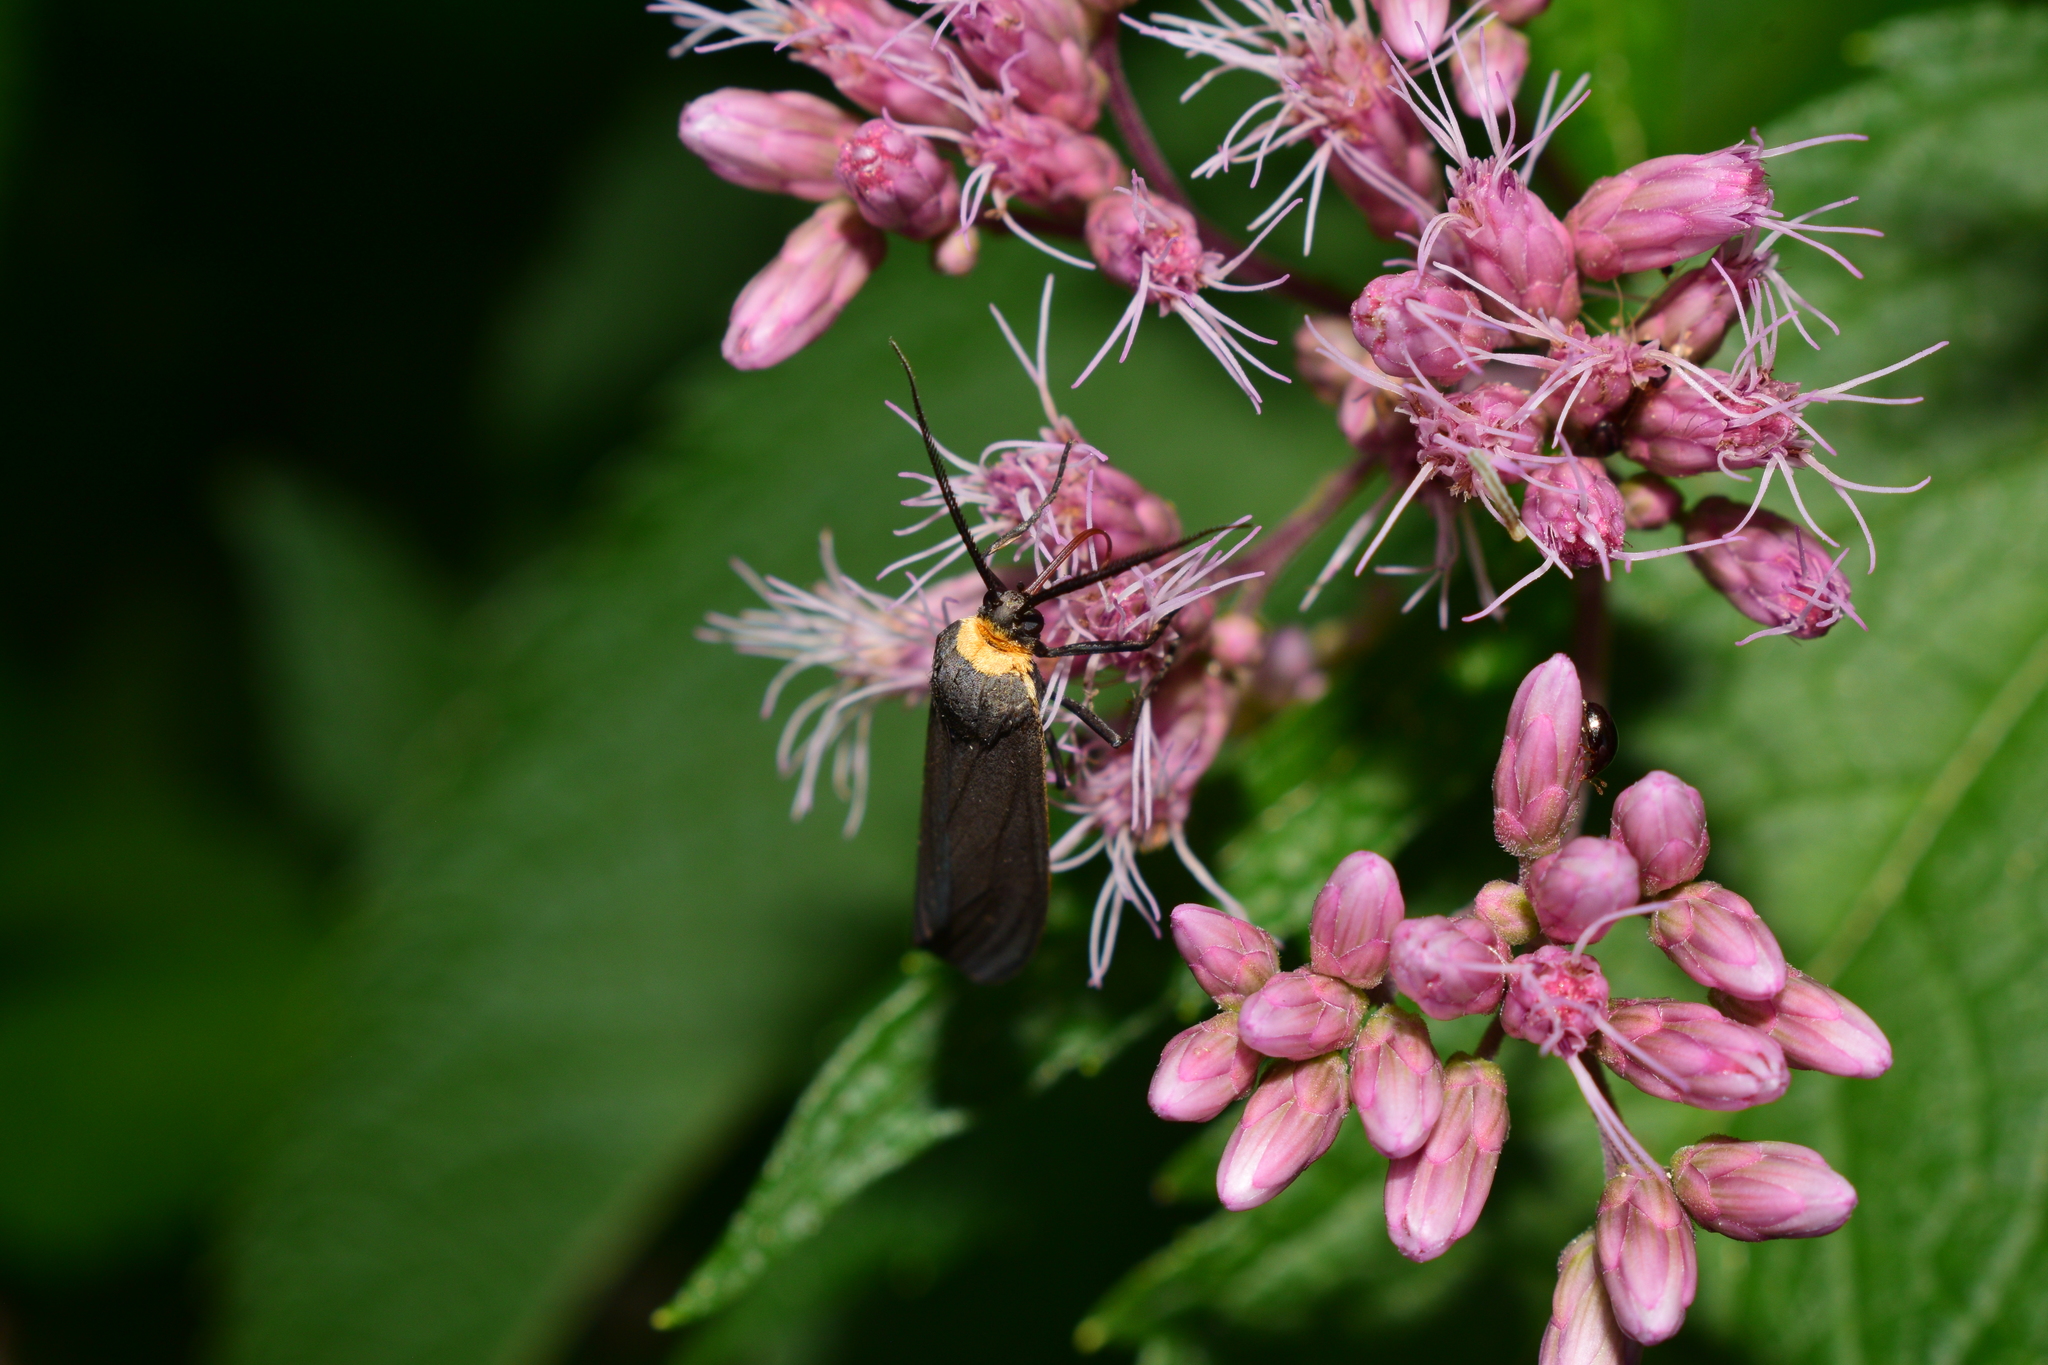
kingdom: Animalia
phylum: Arthropoda
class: Insecta
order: Lepidoptera
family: Erebidae
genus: Cisseps
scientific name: Cisseps fulvicollis
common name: Yellow-collared scape moth
